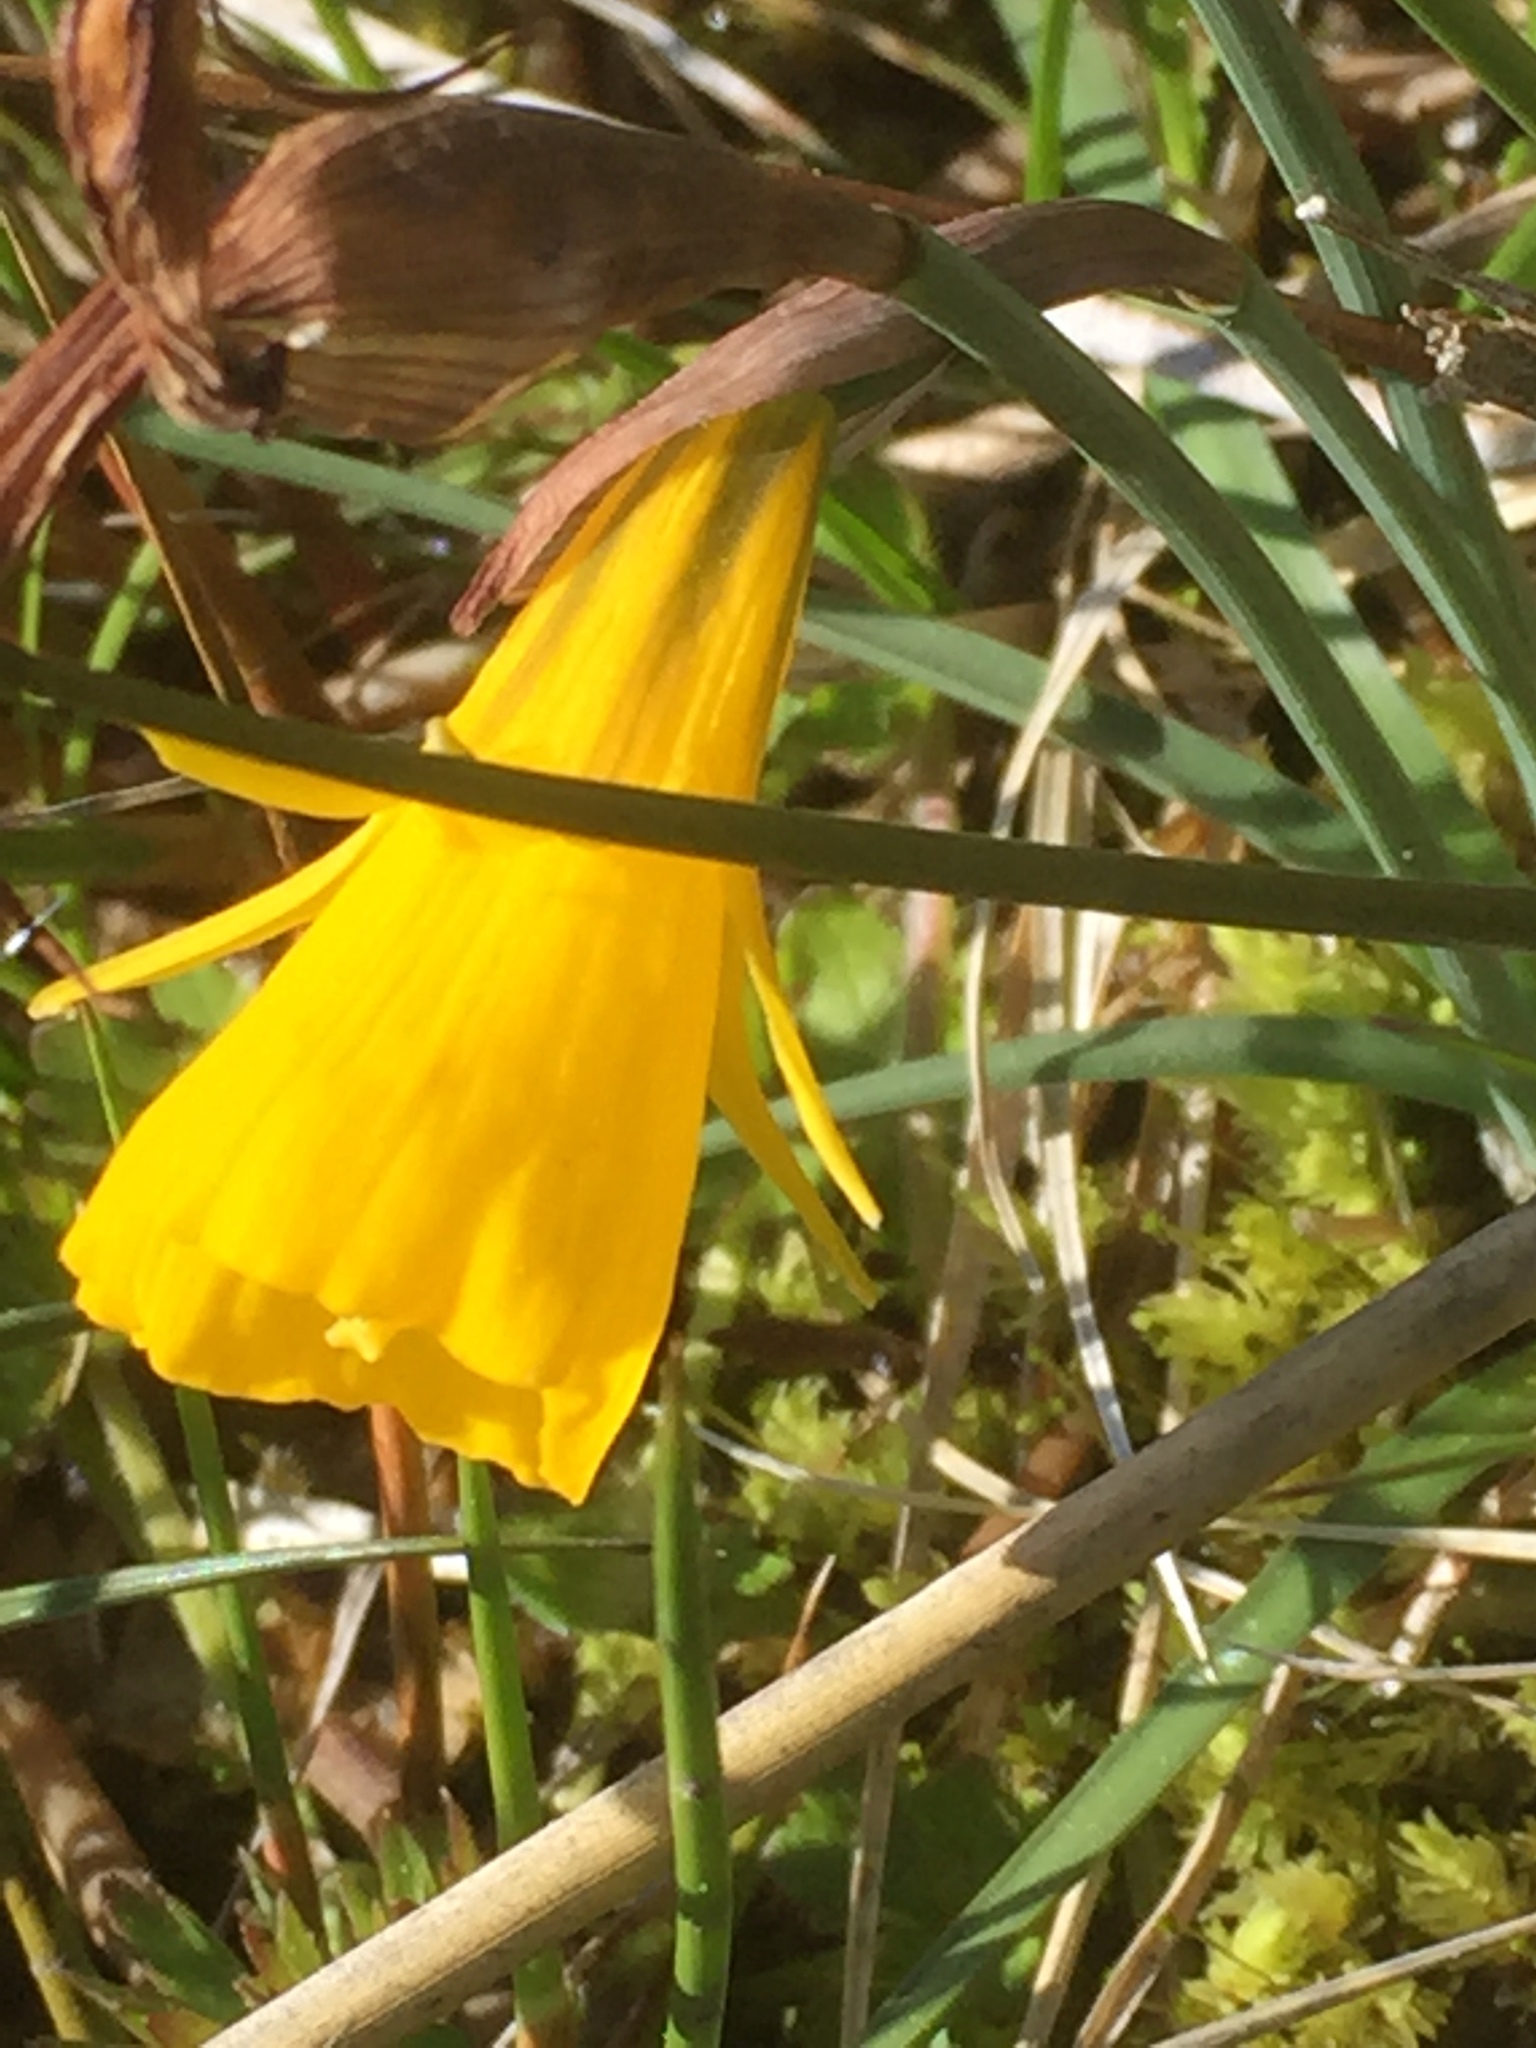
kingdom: Plantae
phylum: Tracheophyta
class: Liliopsida
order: Asparagales
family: Amaryllidaceae
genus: Narcissus
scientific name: Narcissus bulbocodium
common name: Hoop-petticoat daffodil
